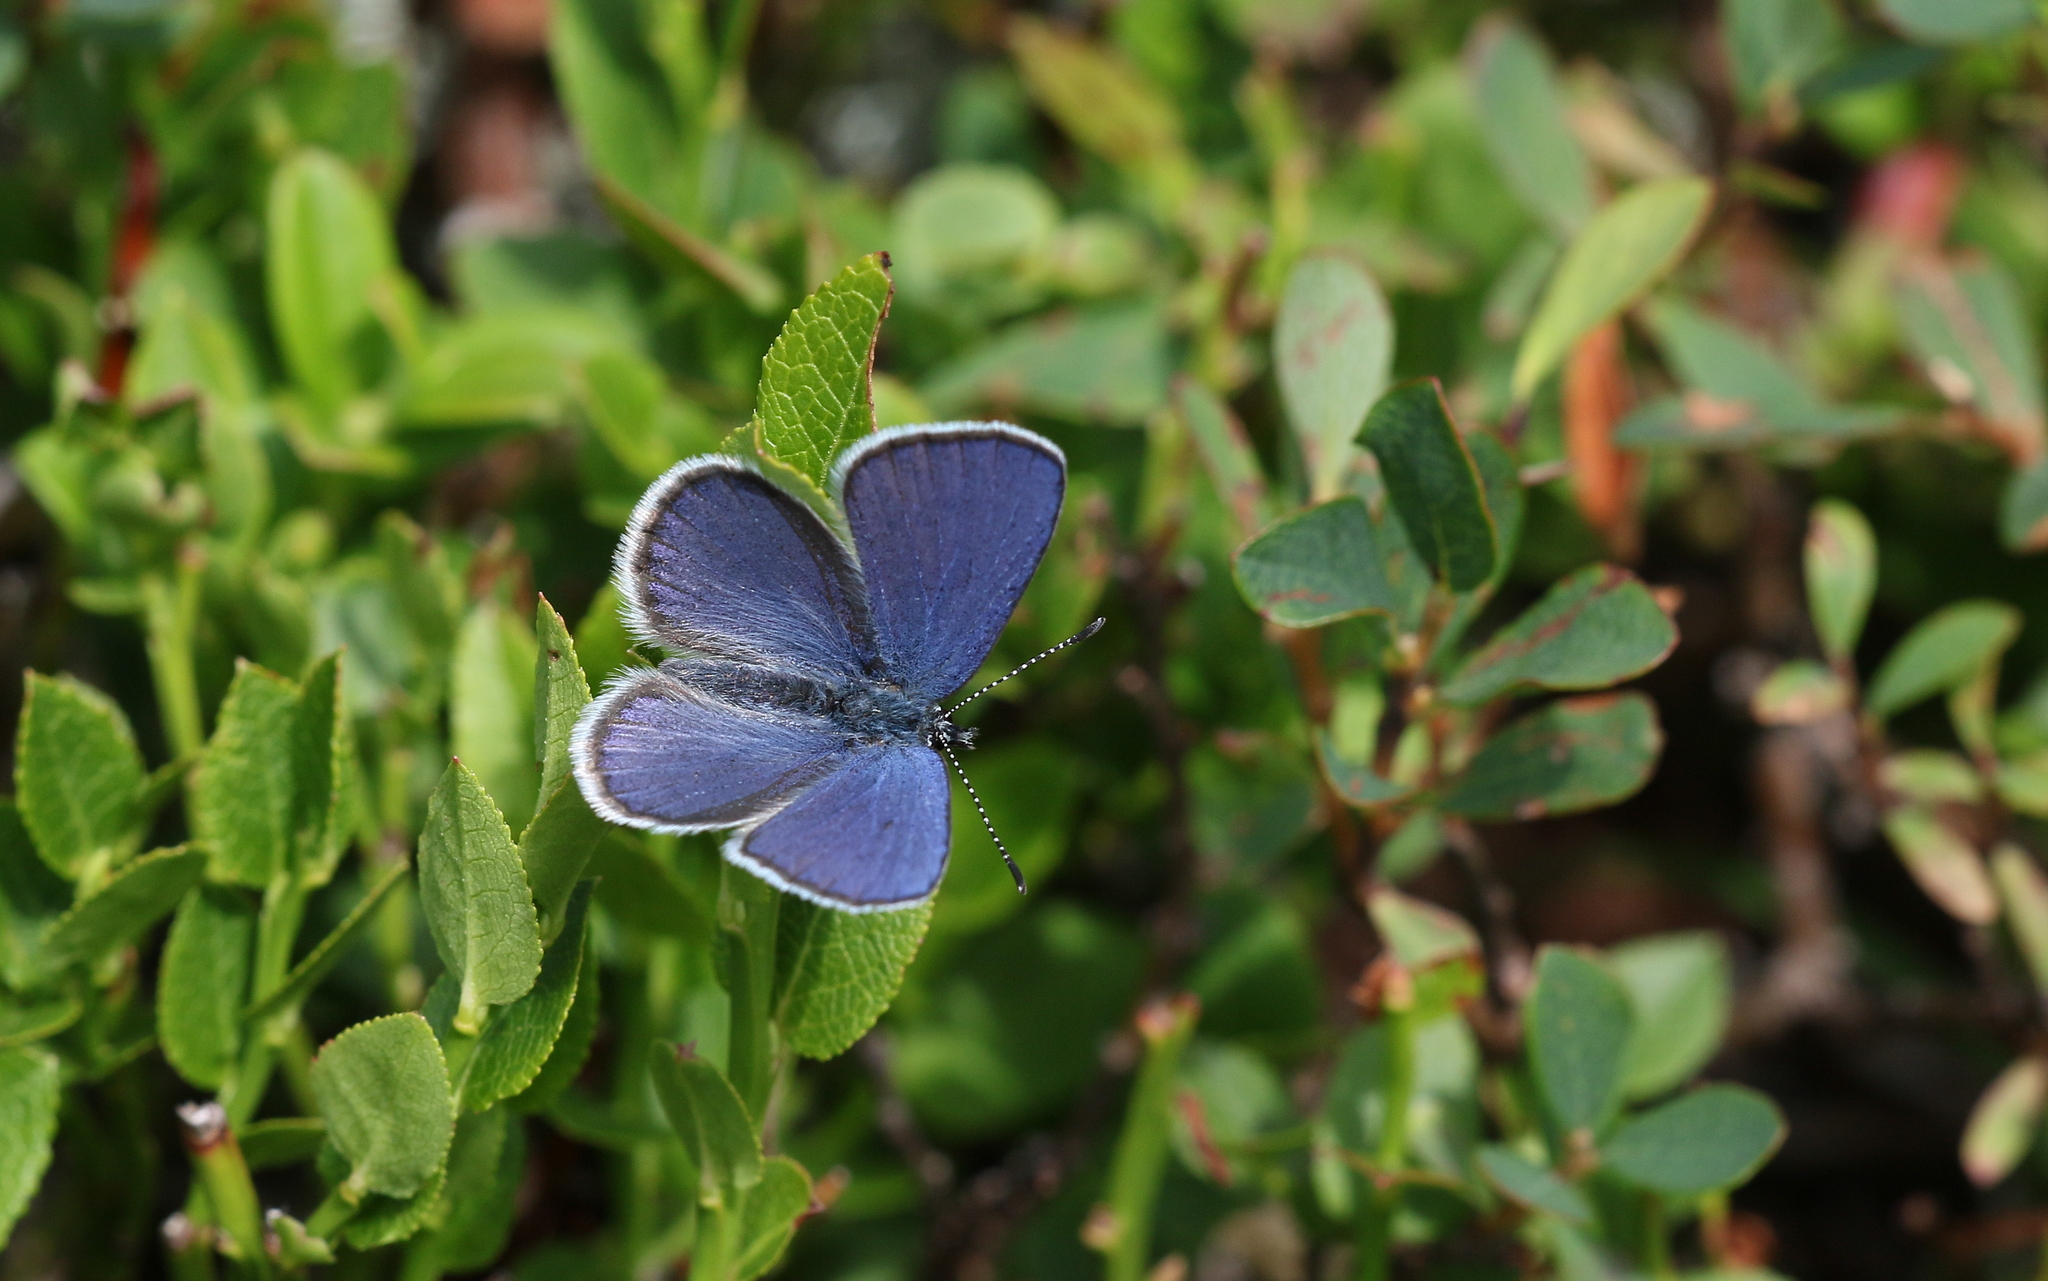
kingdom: Animalia
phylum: Arthropoda
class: Insecta
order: Lepidoptera
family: Lycaenidae
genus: Vacciniina
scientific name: Vacciniina optilete
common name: Cranberry blue
